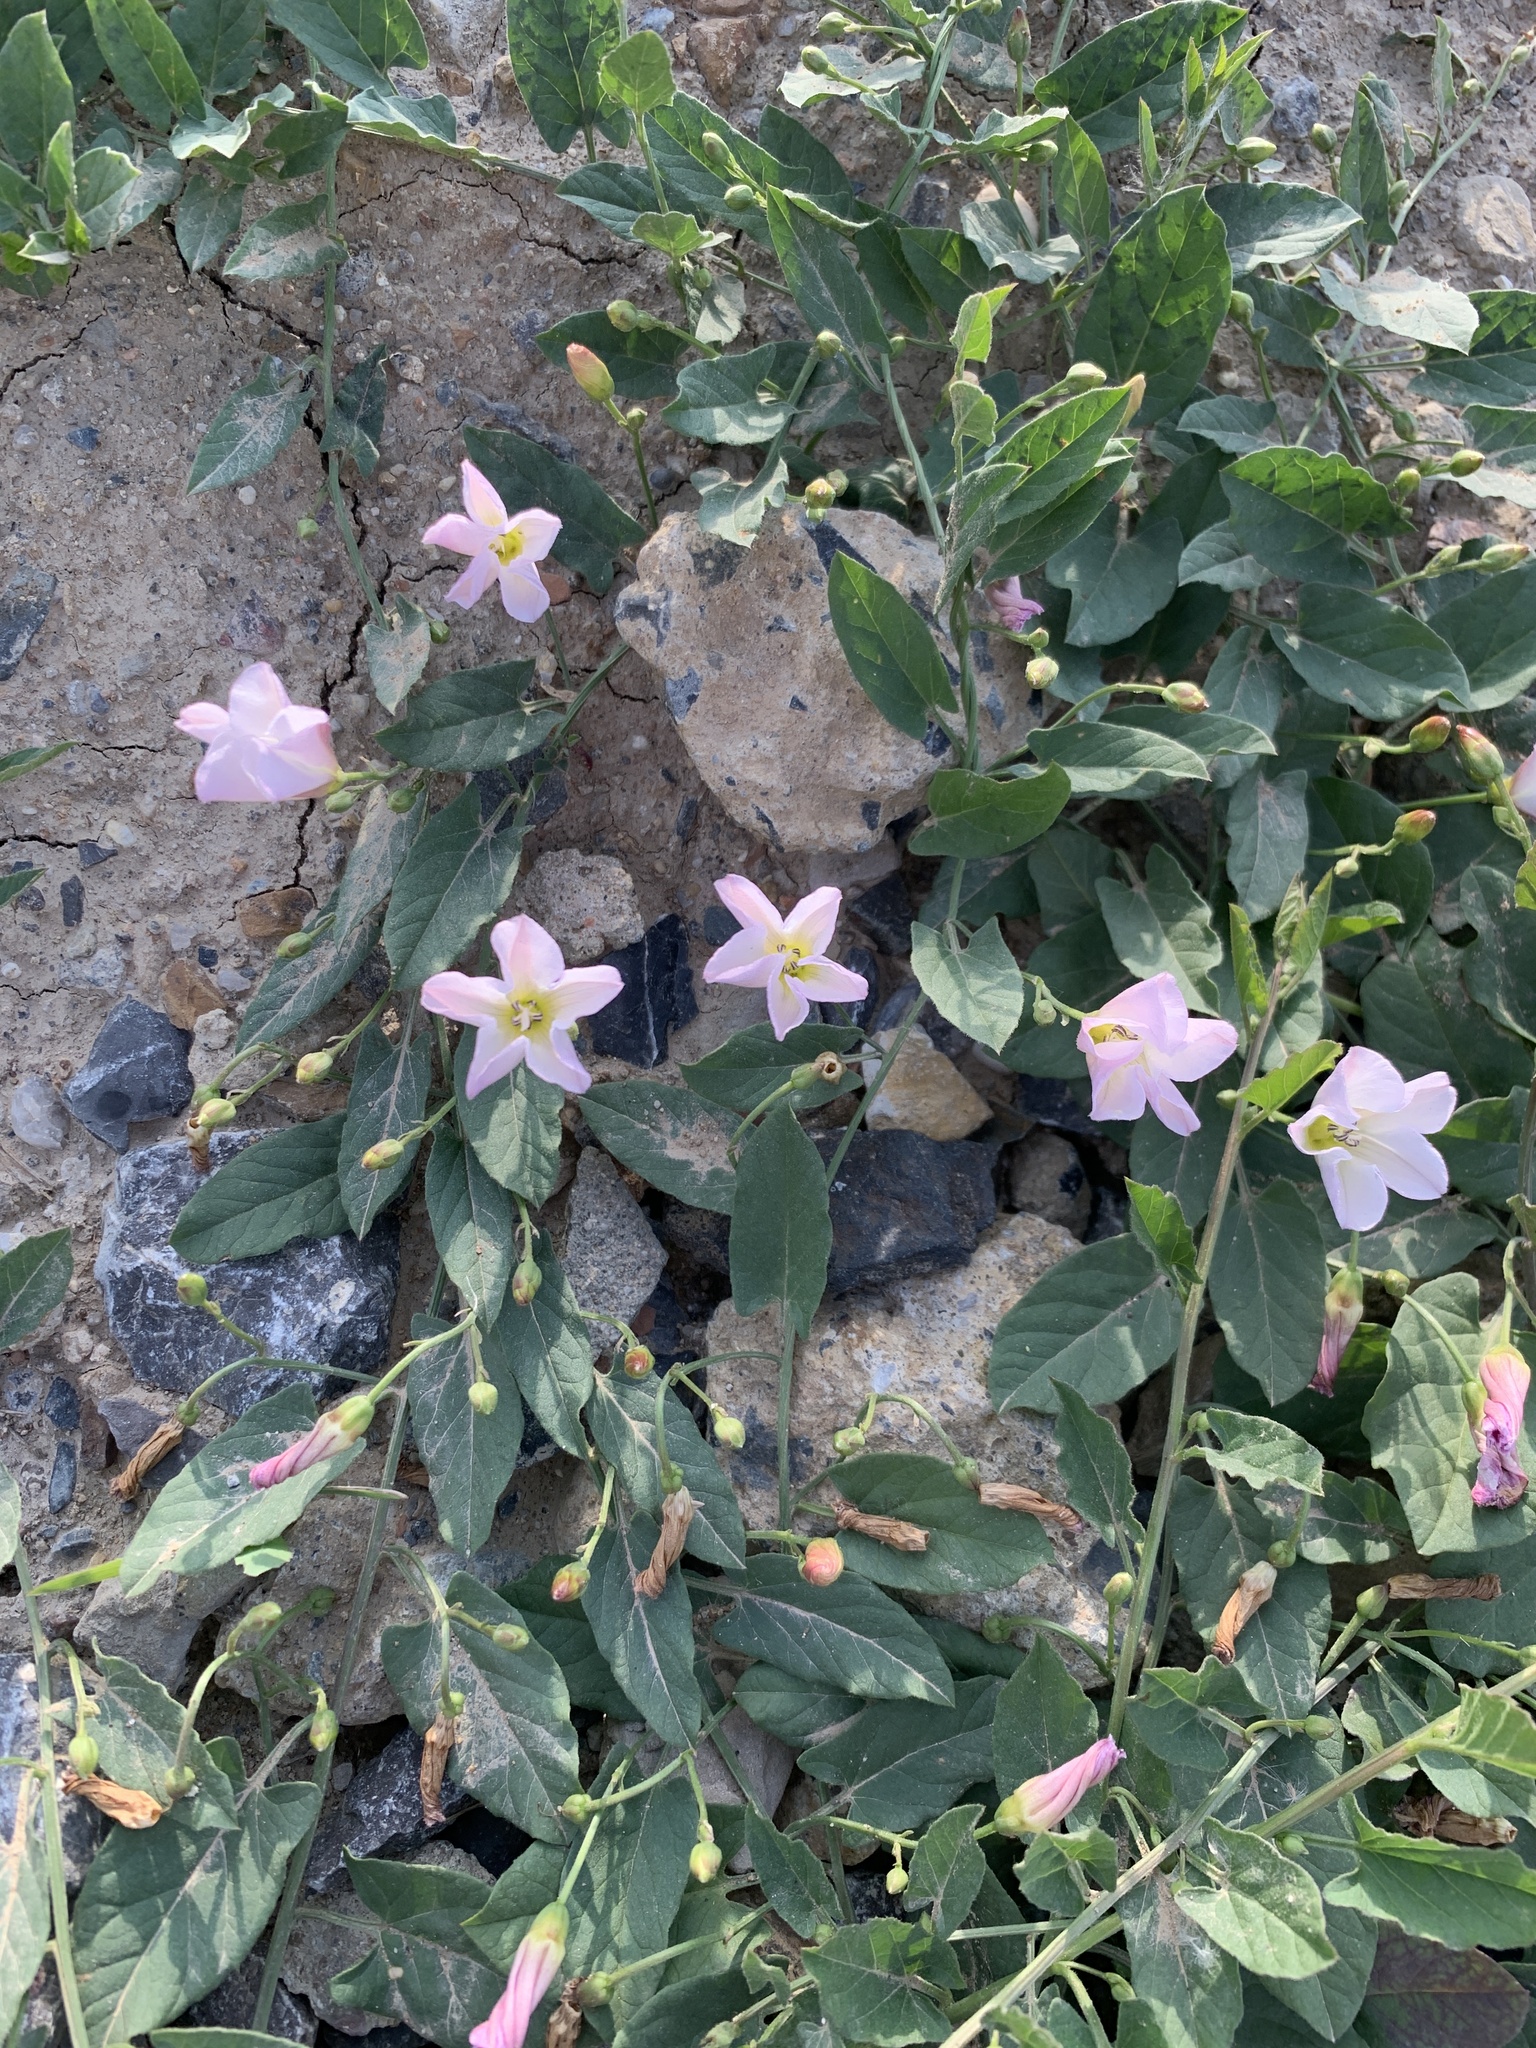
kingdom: Plantae
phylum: Tracheophyta
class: Magnoliopsida
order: Solanales
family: Convolvulaceae
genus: Convolvulus
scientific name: Convolvulus arvensis
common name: Field bindweed
